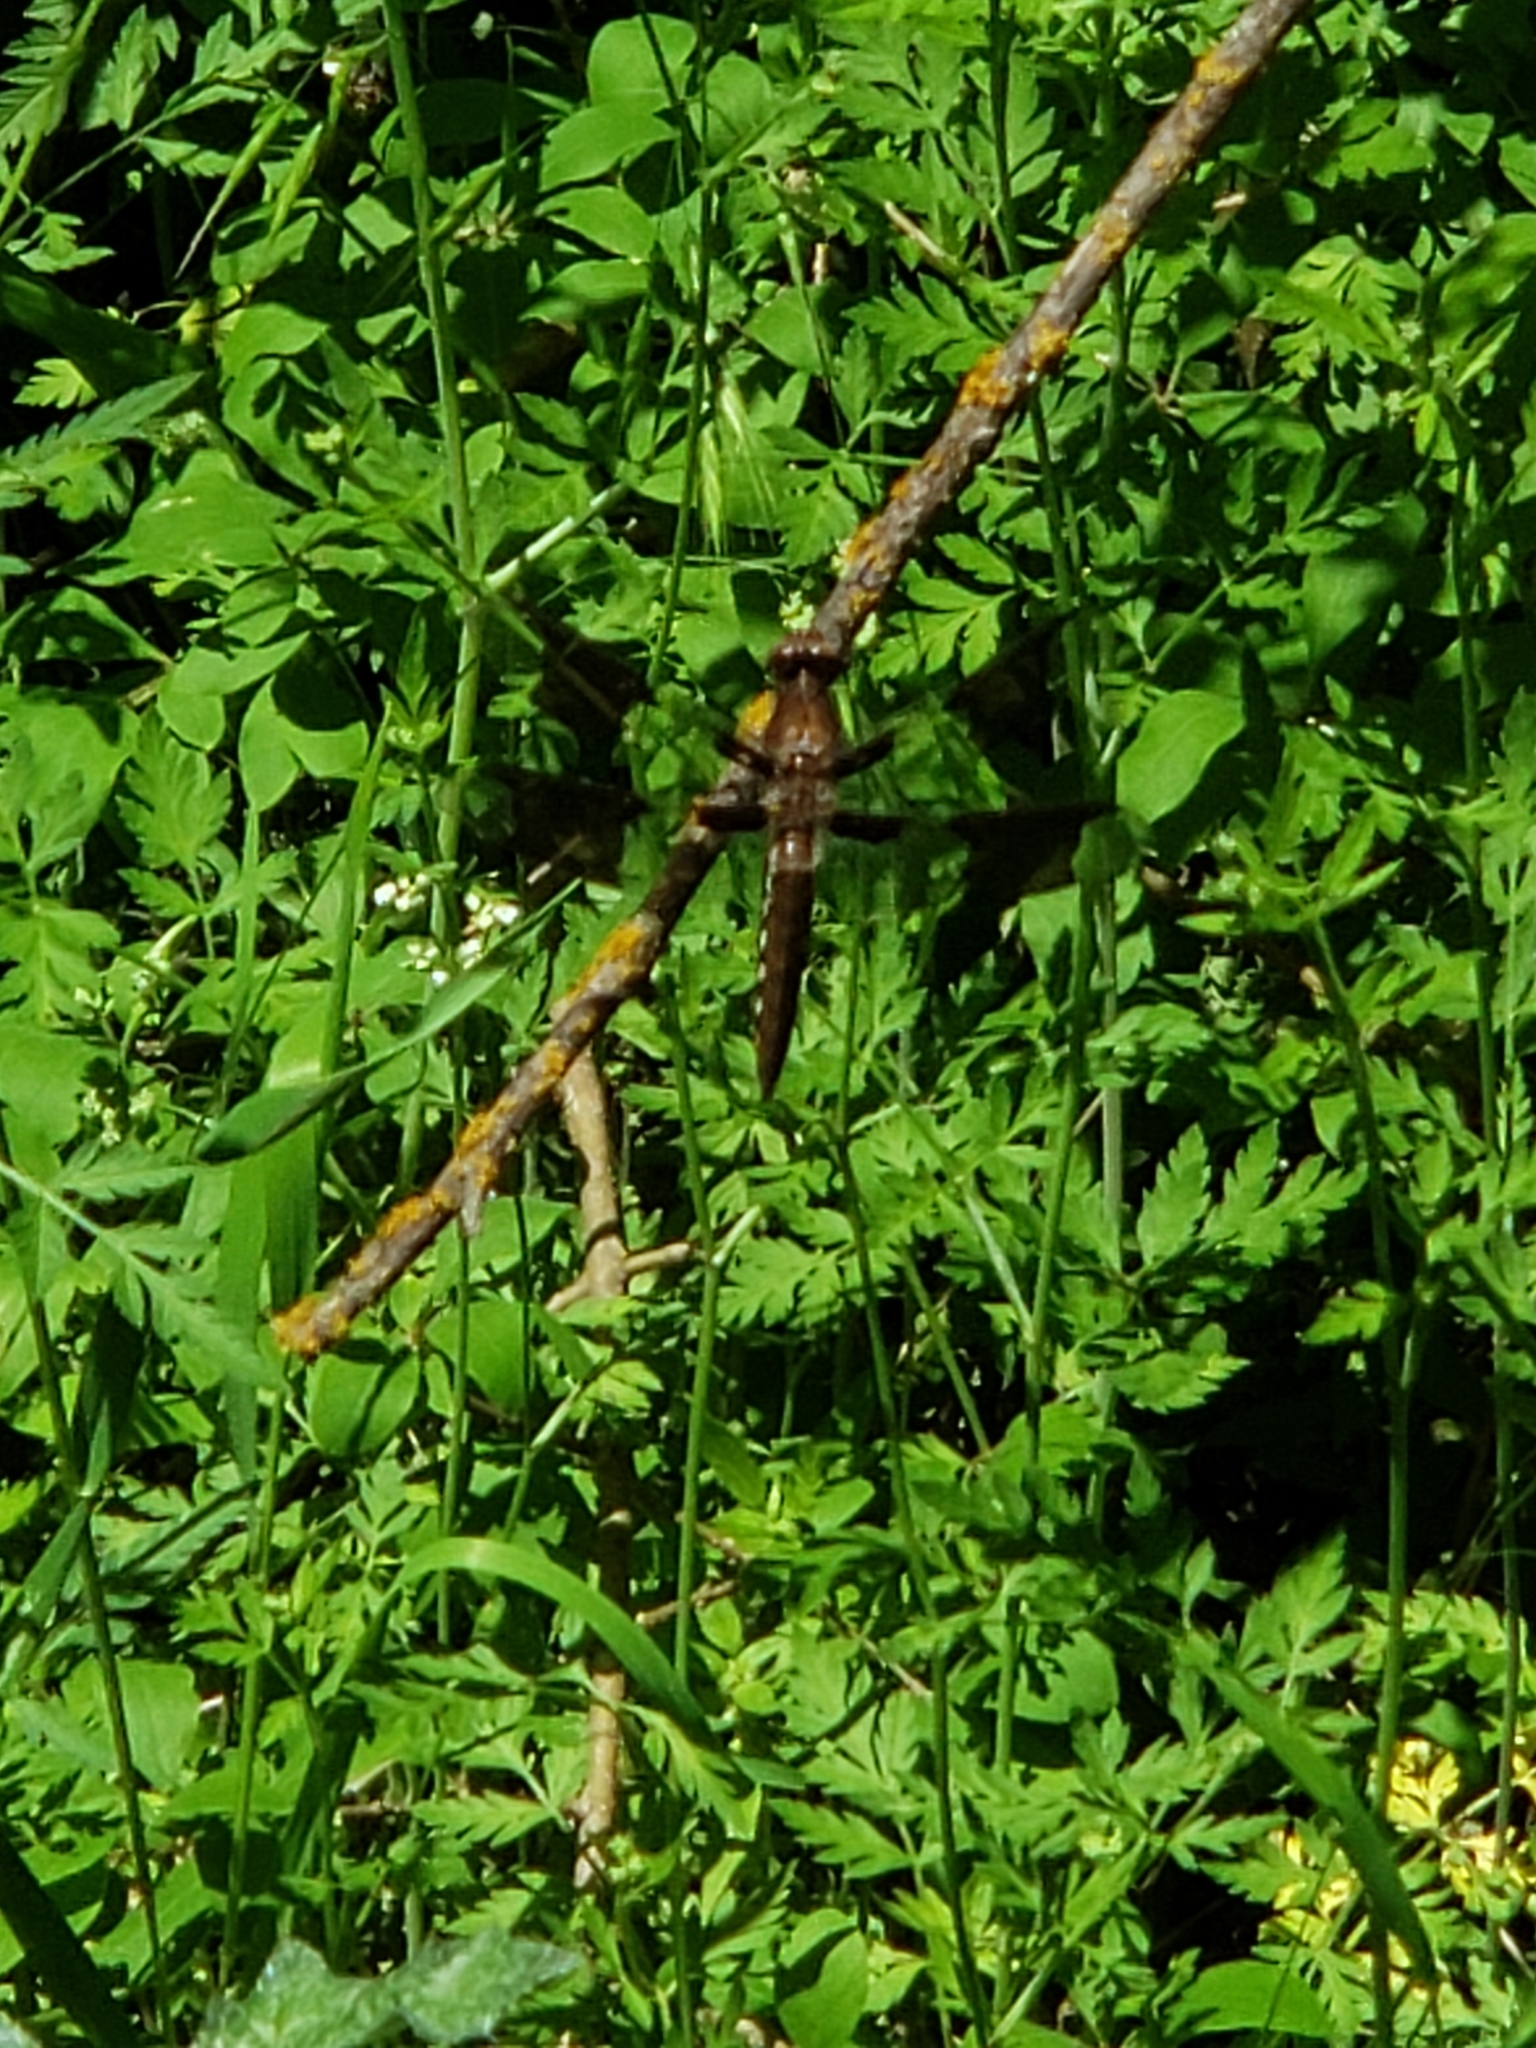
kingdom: Animalia
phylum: Arthropoda
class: Insecta
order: Odonata
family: Libellulidae
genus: Plathemis
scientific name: Plathemis lydia
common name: Common whitetail
